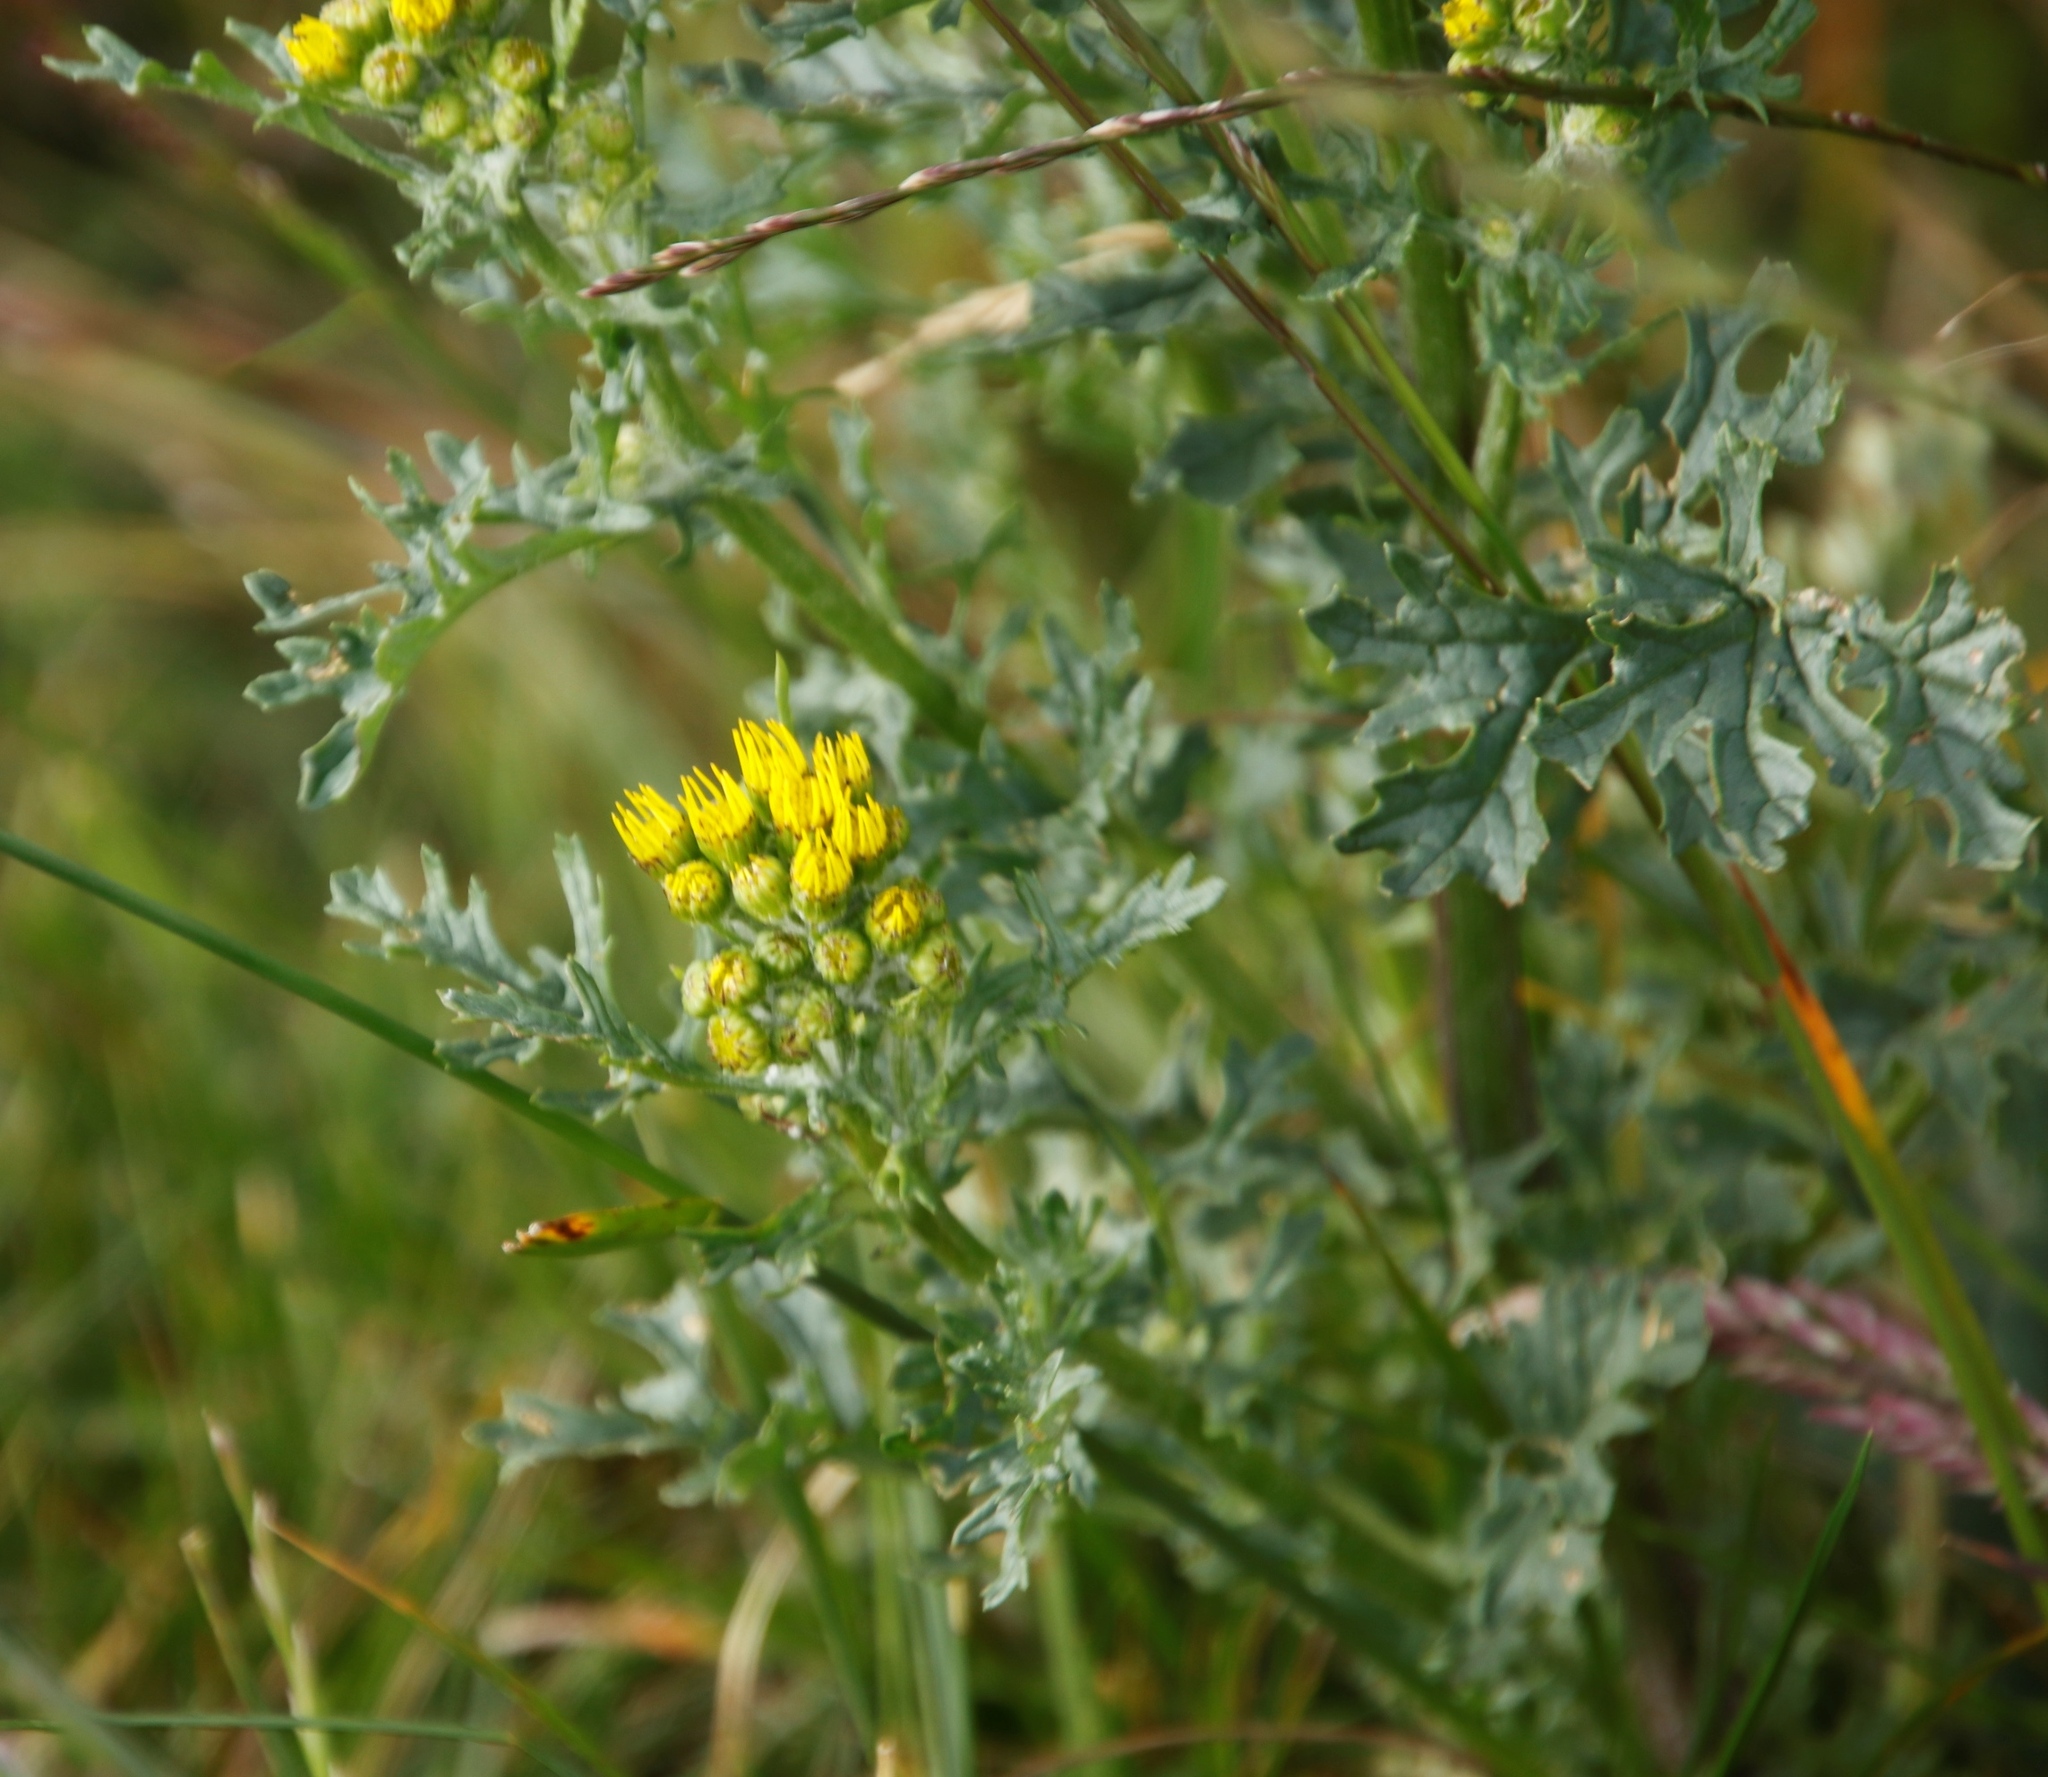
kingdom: Plantae
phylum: Tracheophyta
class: Magnoliopsida
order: Asterales
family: Asteraceae
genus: Jacobaea
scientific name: Jacobaea vulgaris
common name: Stinking willie
